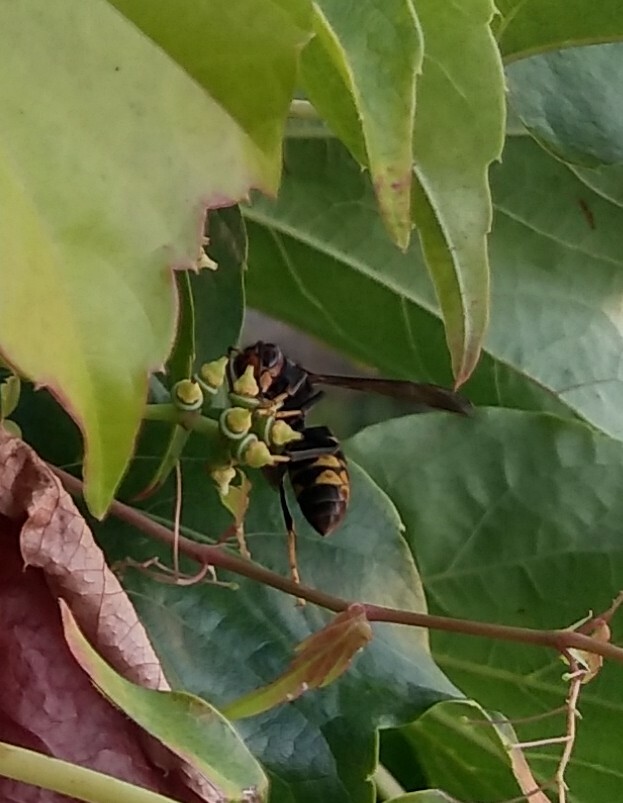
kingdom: Animalia
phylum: Arthropoda
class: Insecta
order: Hymenoptera
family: Vespidae
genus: Vespa
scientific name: Vespa velutina
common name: Asian hornet
